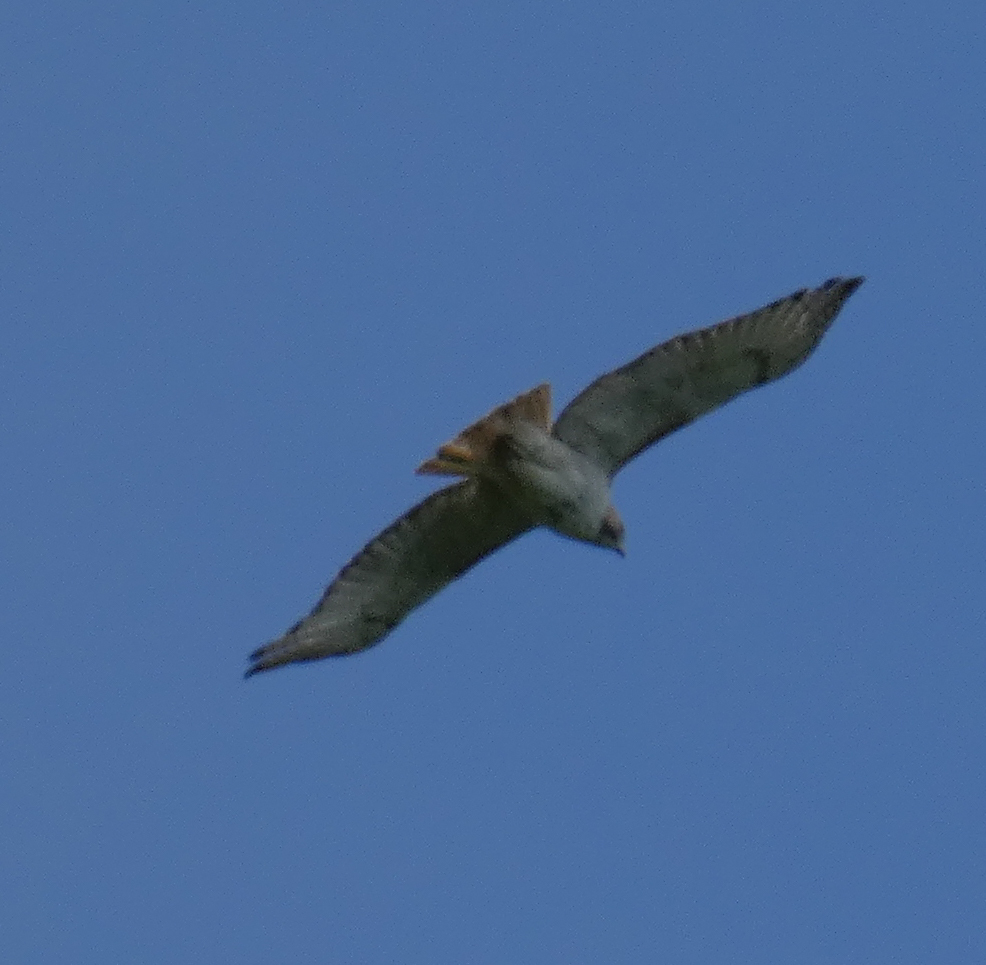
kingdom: Animalia
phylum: Chordata
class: Aves
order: Accipitriformes
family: Accipitridae
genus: Buteo
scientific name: Buteo jamaicensis
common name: Red-tailed hawk
